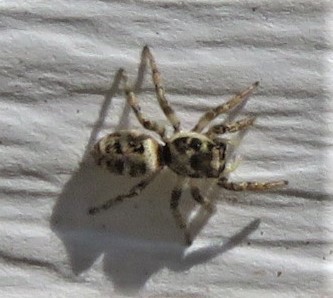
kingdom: Animalia
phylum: Arthropoda
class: Arachnida
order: Araneae
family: Salticidae
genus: Salticus
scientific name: Salticus scenicus
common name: Zebra jumper
